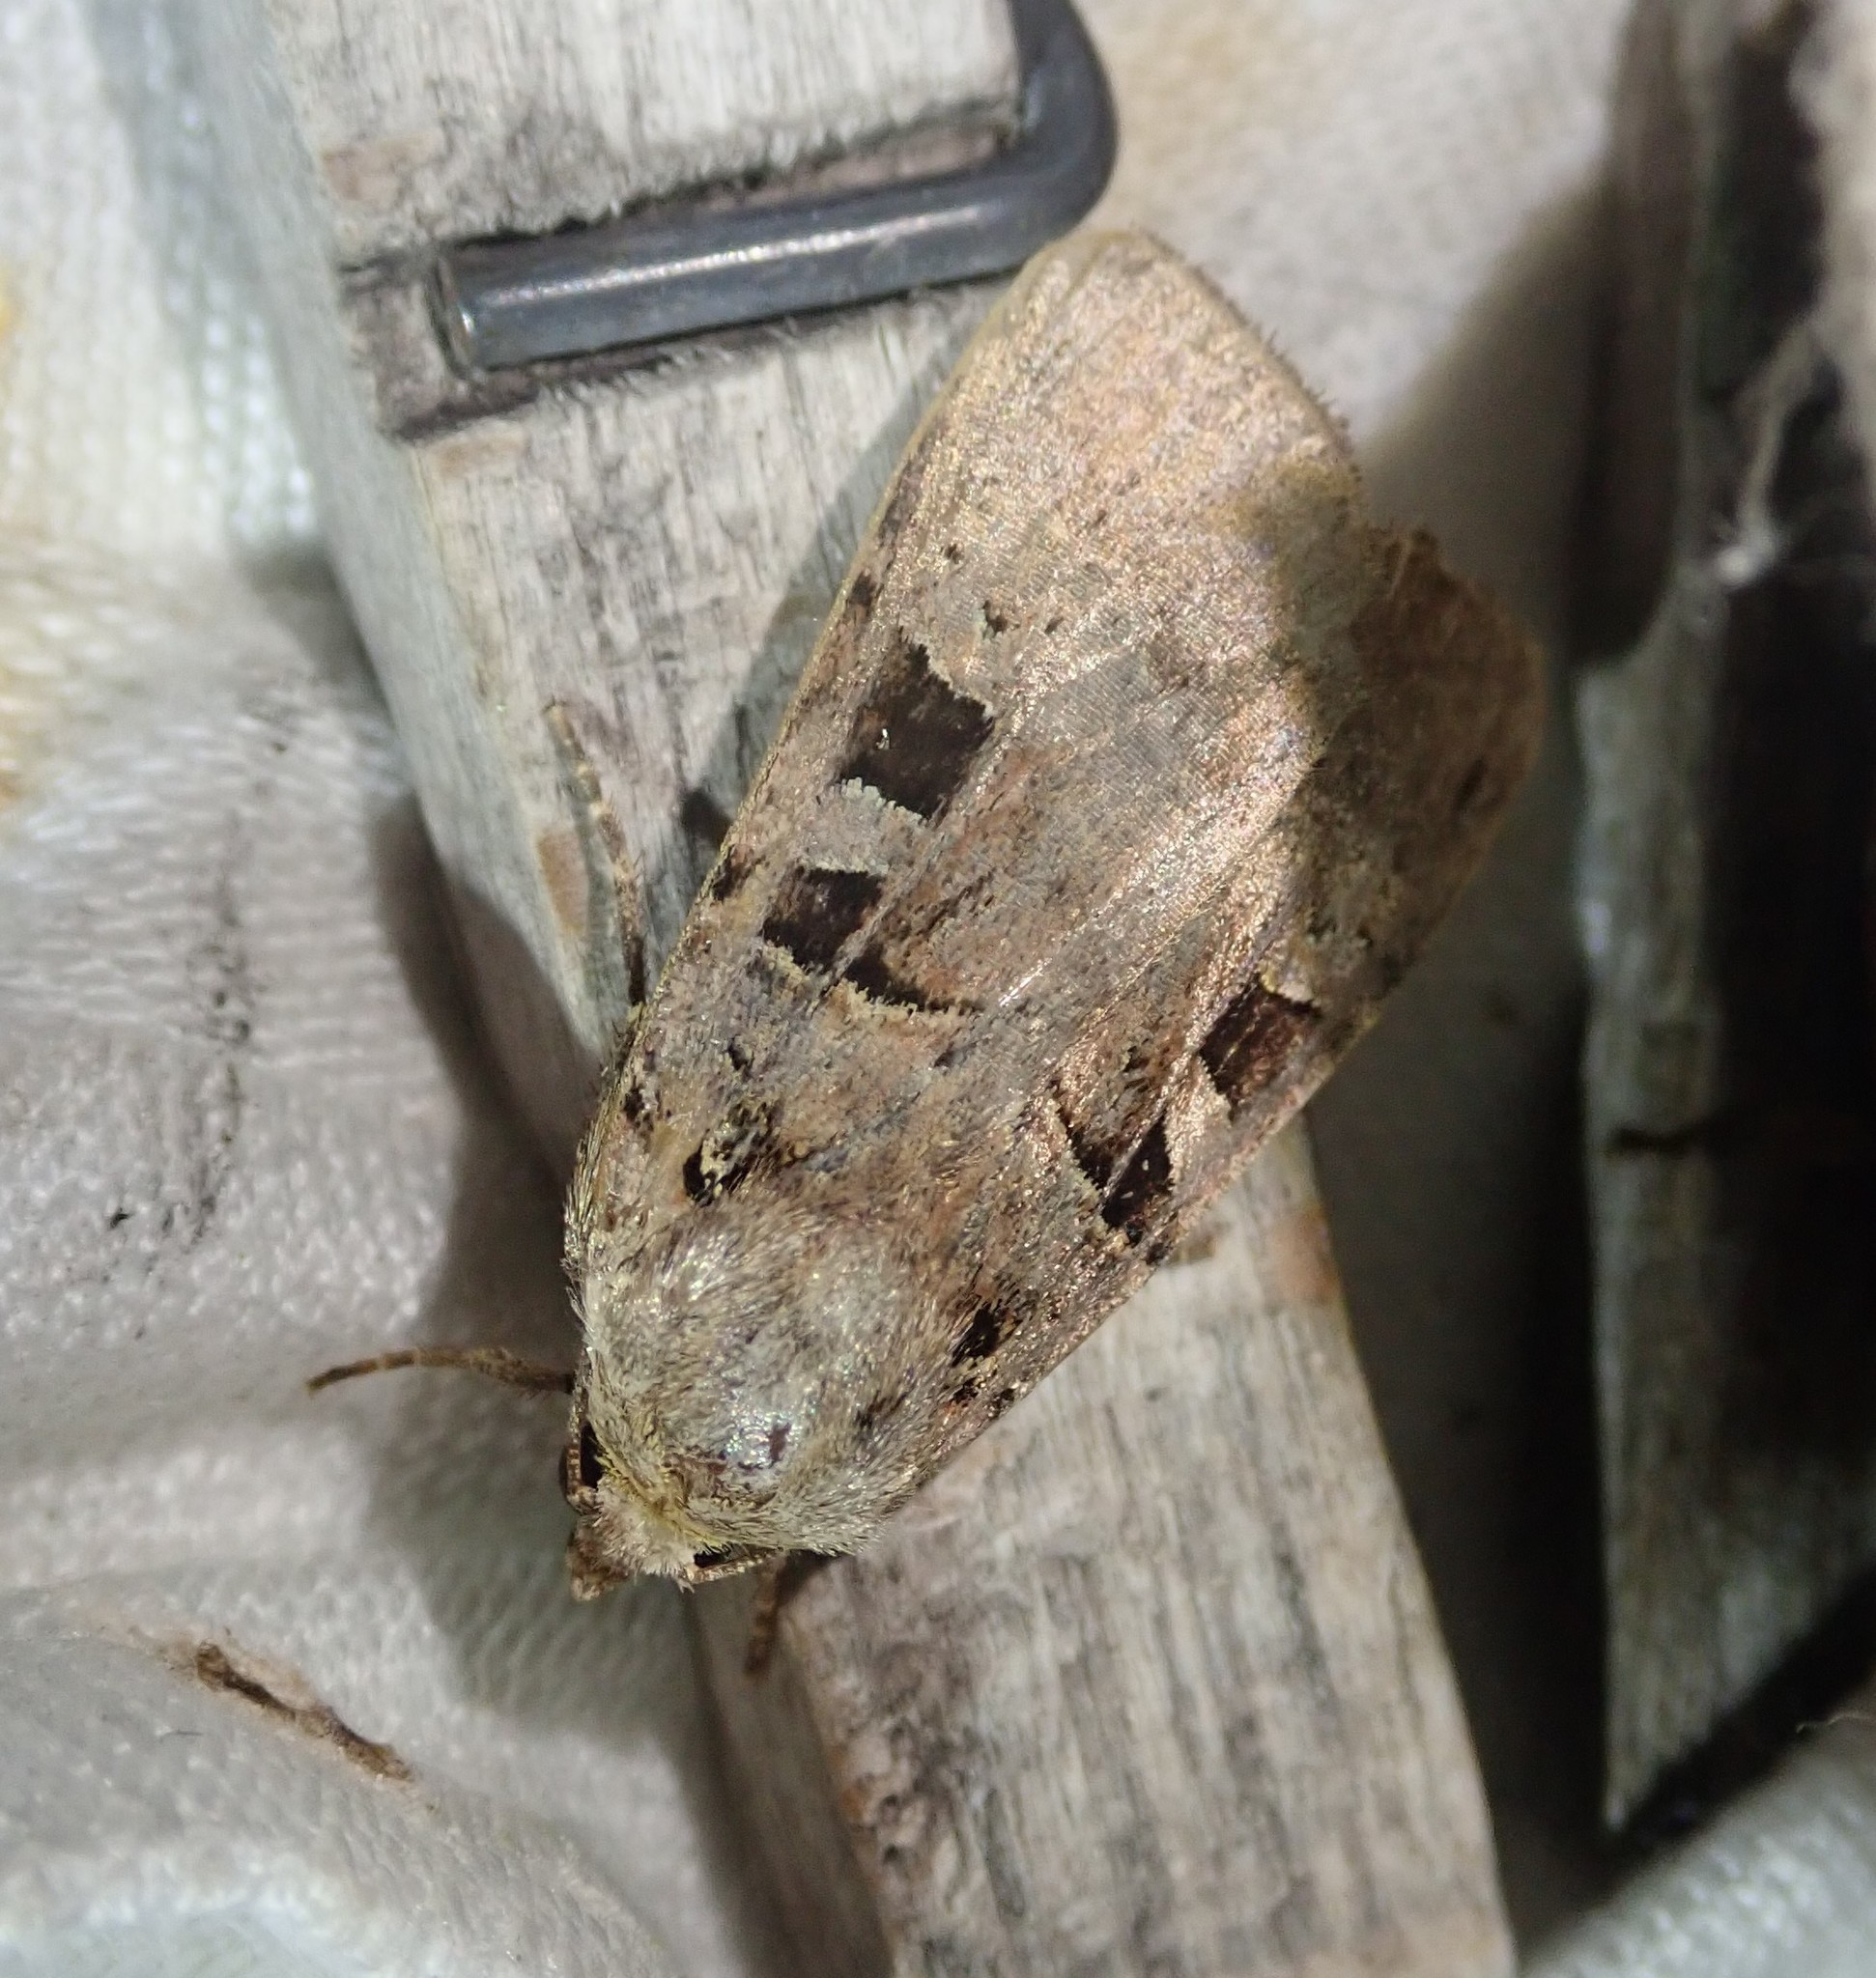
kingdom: Animalia
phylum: Arthropoda
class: Insecta
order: Lepidoptera
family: Noctuidae
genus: Xestia
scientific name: Xestia triangulum
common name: Double square-spot
